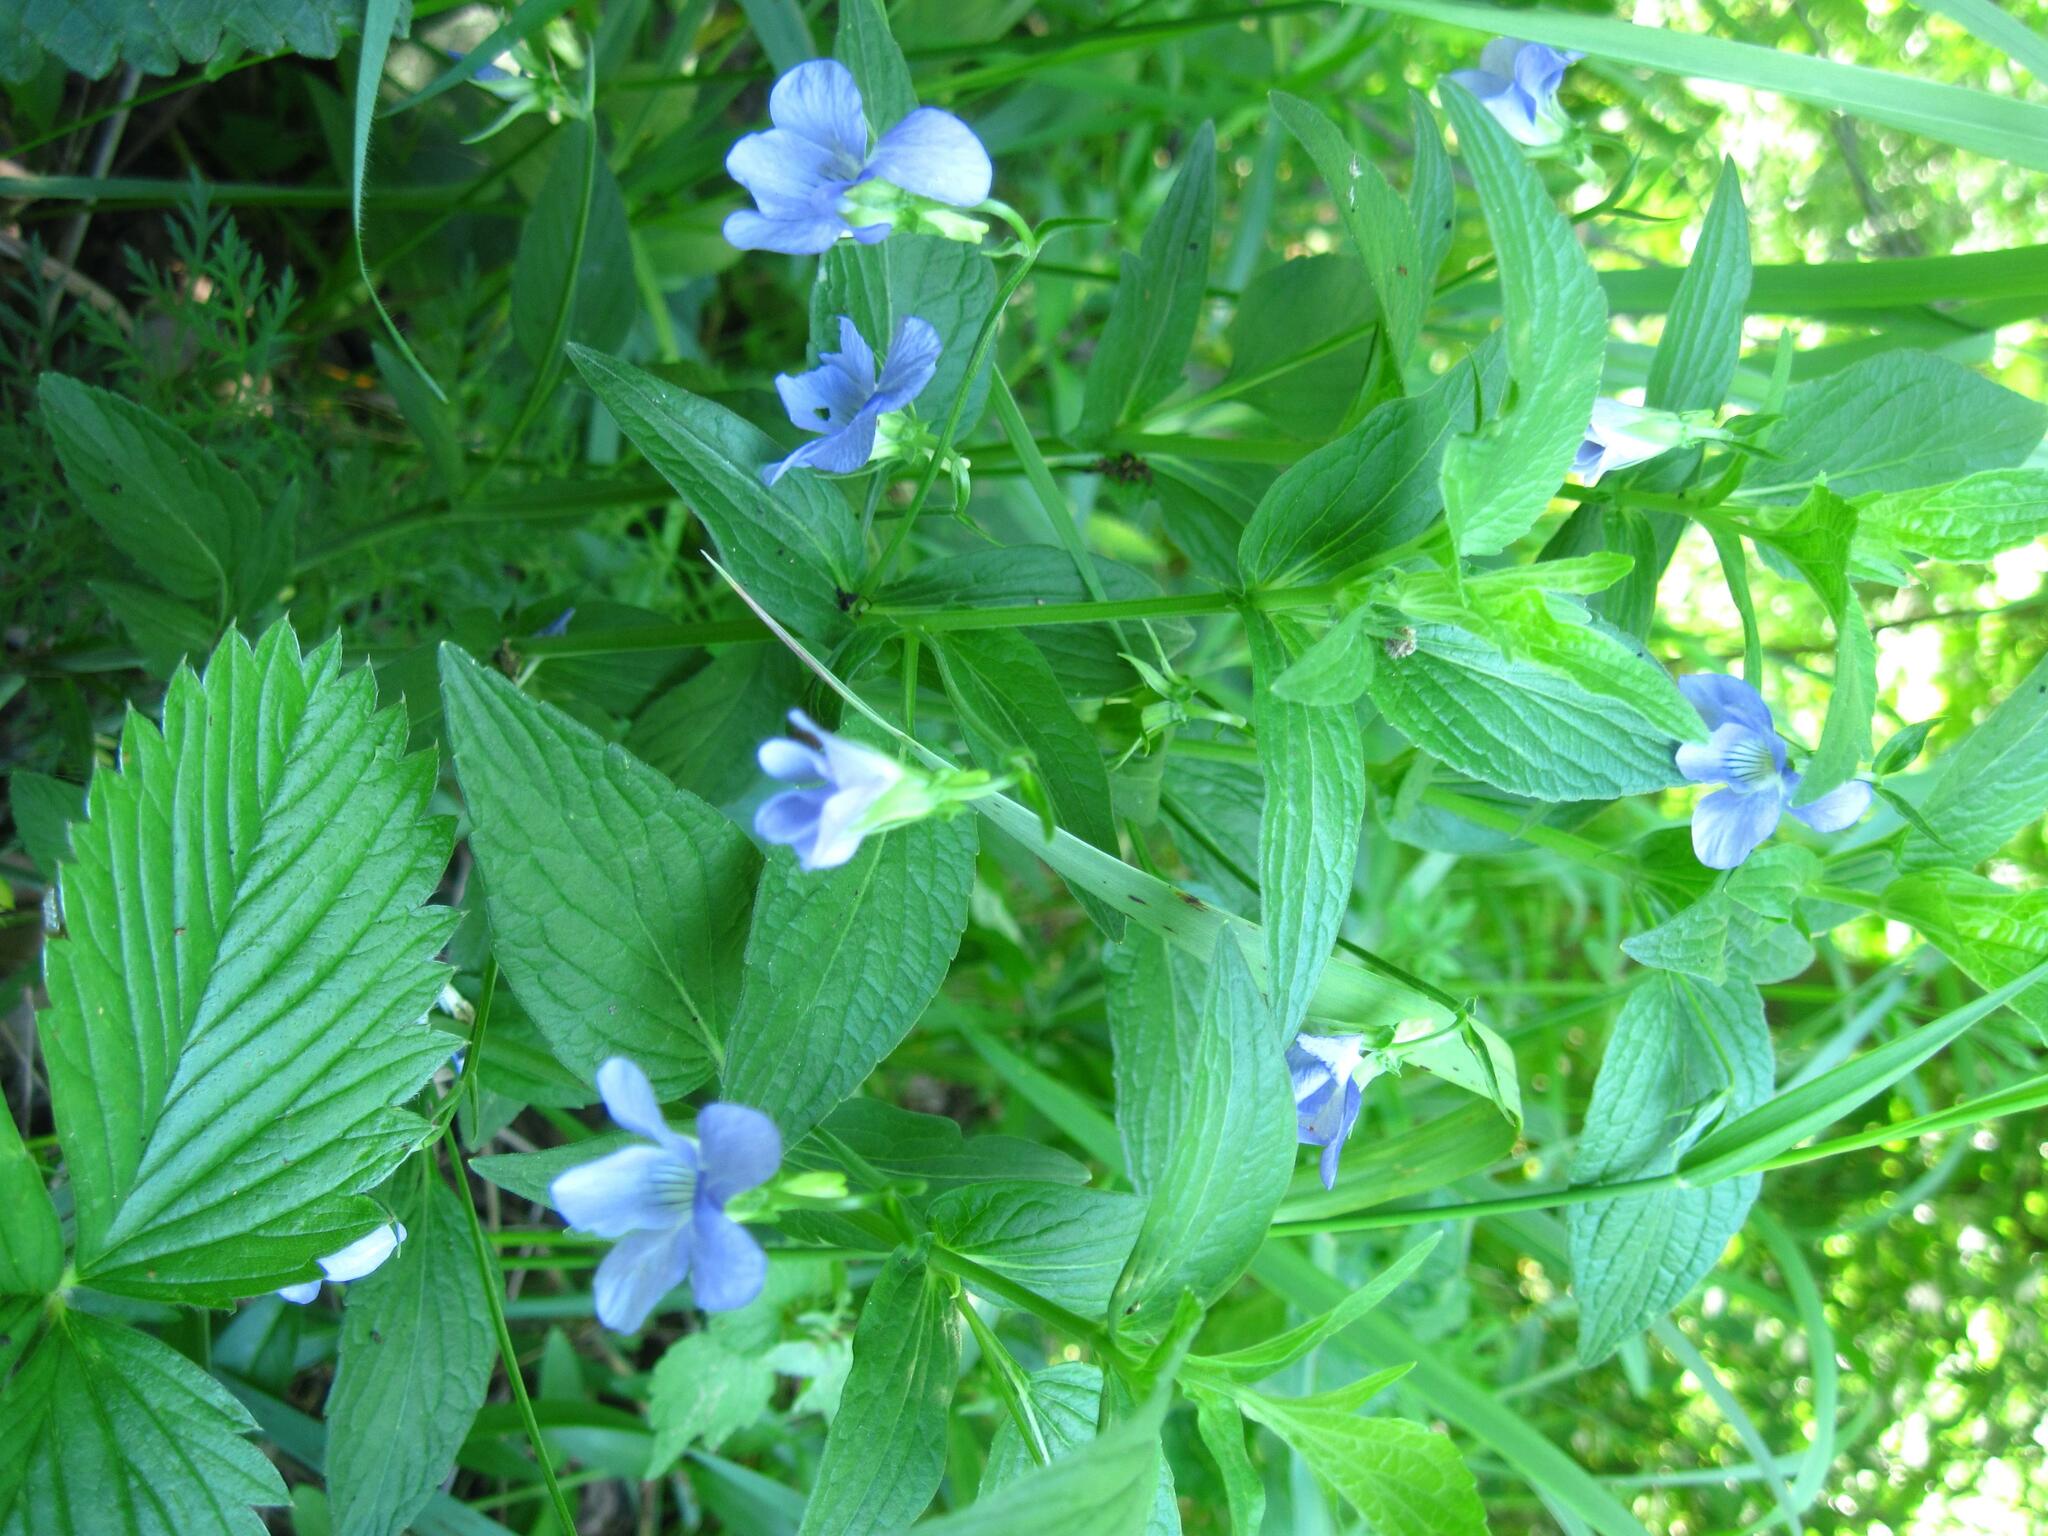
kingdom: Plantae
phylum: Tracheophyta
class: Magnoliopsida
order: Malpighiales
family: Violaceae
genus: Viola
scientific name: Viola elatior
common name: Tall violet
